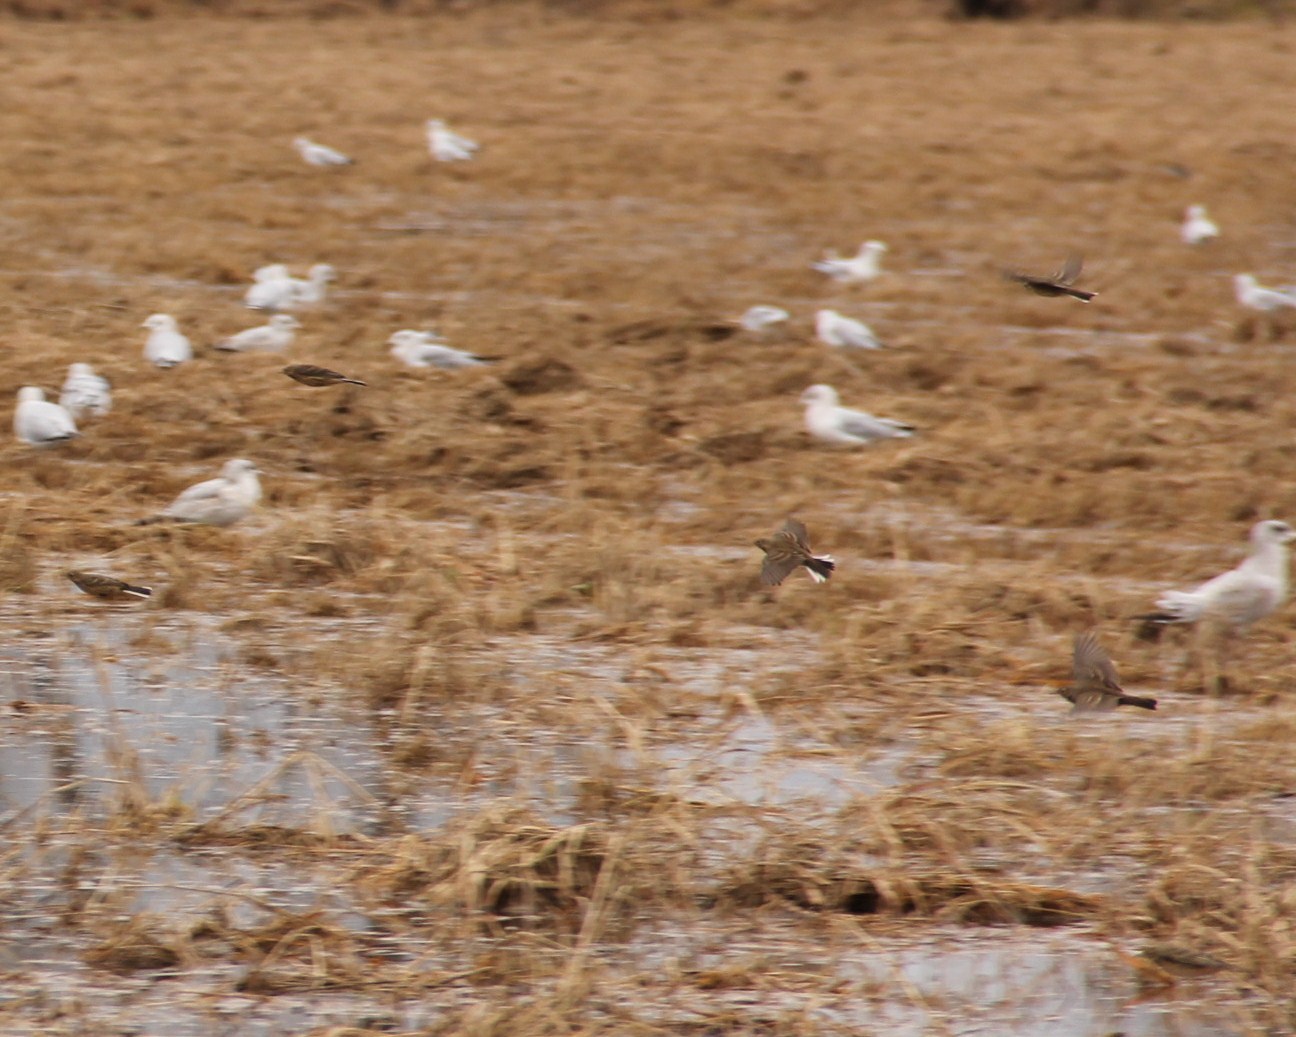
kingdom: Animalia
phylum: Chordata
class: Aves
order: Passeriformes
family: Motacillidae
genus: Anthus
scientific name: Anthus rubescens
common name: Buff-bellied pipit
